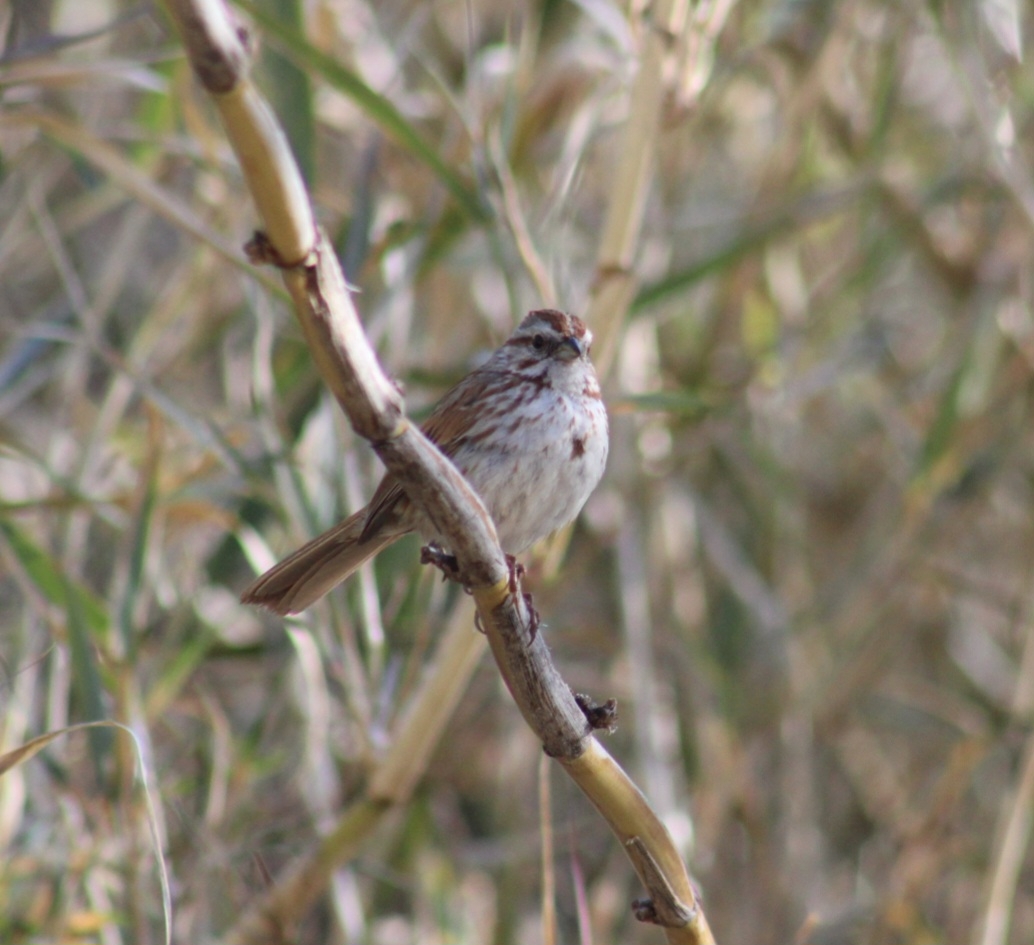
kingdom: Animalia
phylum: Chordata
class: Aves
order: Passeriformes
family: Passerellidae
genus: Melospiza
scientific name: Melospiza melodia
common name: Song sparrow
